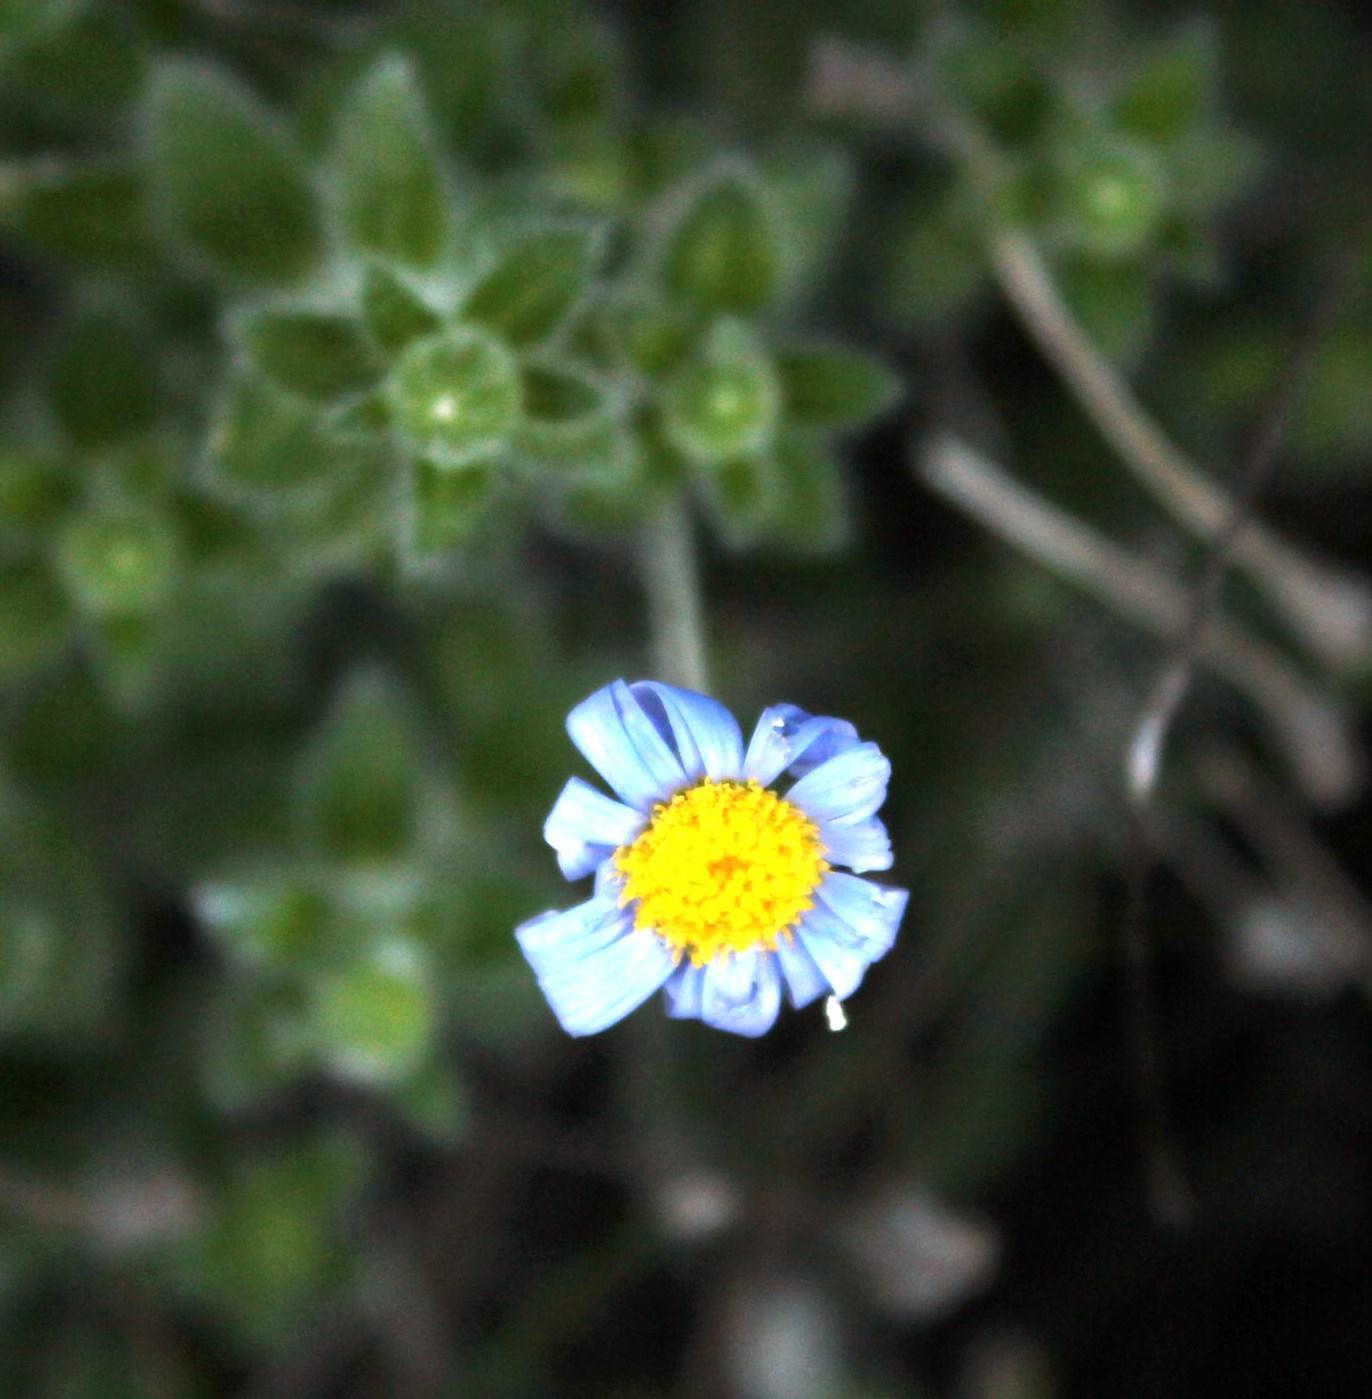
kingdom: Plantae
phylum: Tracheophyta
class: Magnoliopsida
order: Asterales
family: Asteraceae
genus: Felicia
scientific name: Felicia amoena
